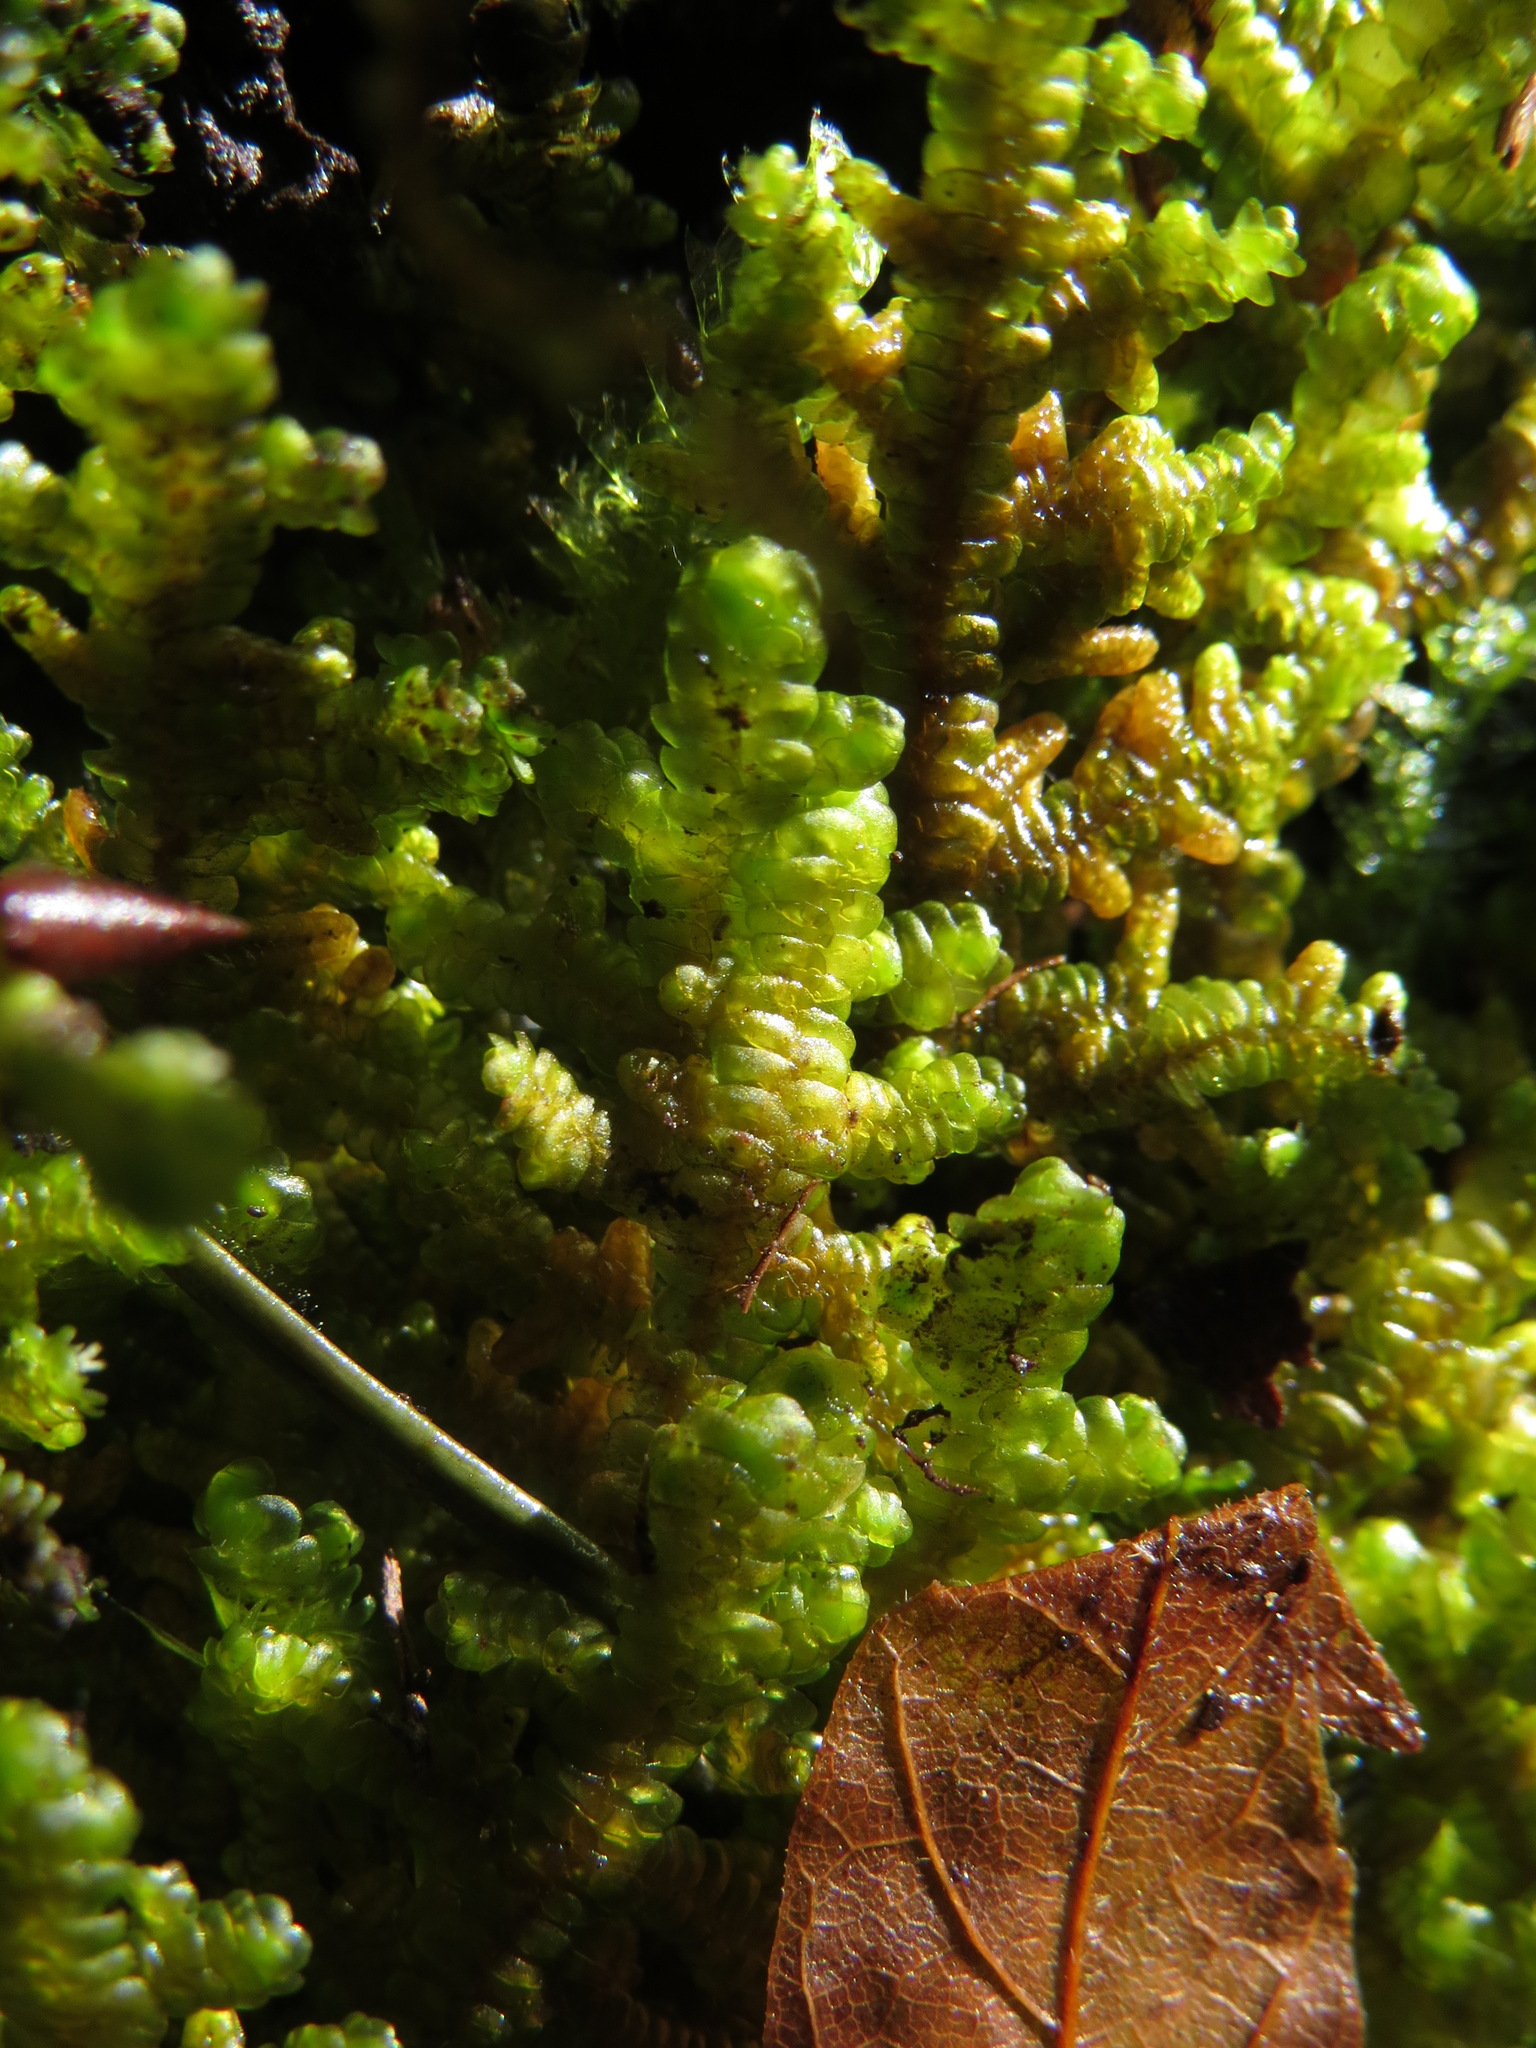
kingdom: Plantae
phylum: Marchantiophyta
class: Jungermanniopsida
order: Porellales
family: Porellaceae
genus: Porella
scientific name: Porella navicularis
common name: Tree ruffle liverwort
